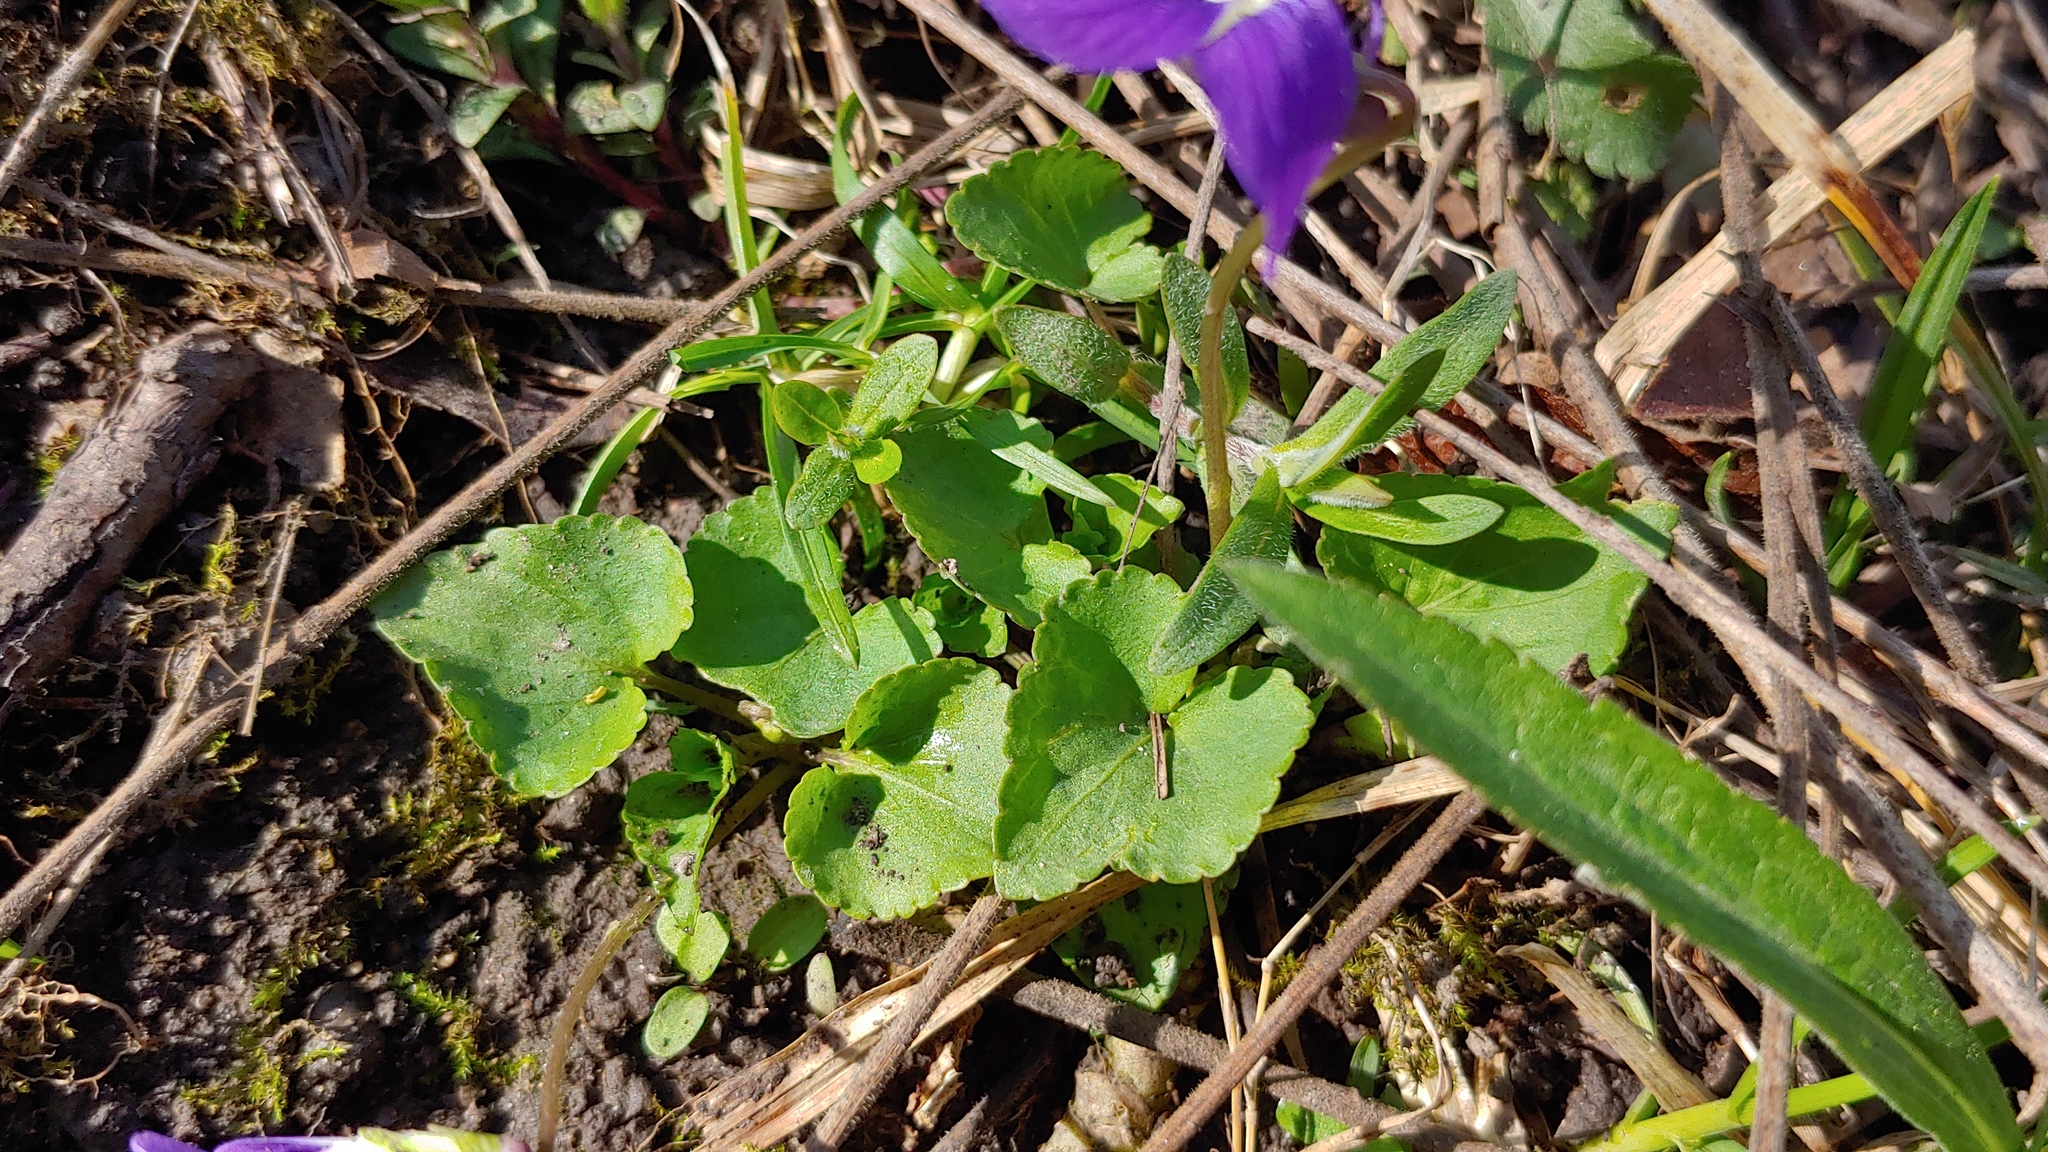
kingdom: Plantae
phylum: Tracheophyta
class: Magnoliopsida
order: Malpighiales
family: Violaceae
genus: Viola
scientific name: Viola sororia
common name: Dooryard violet
